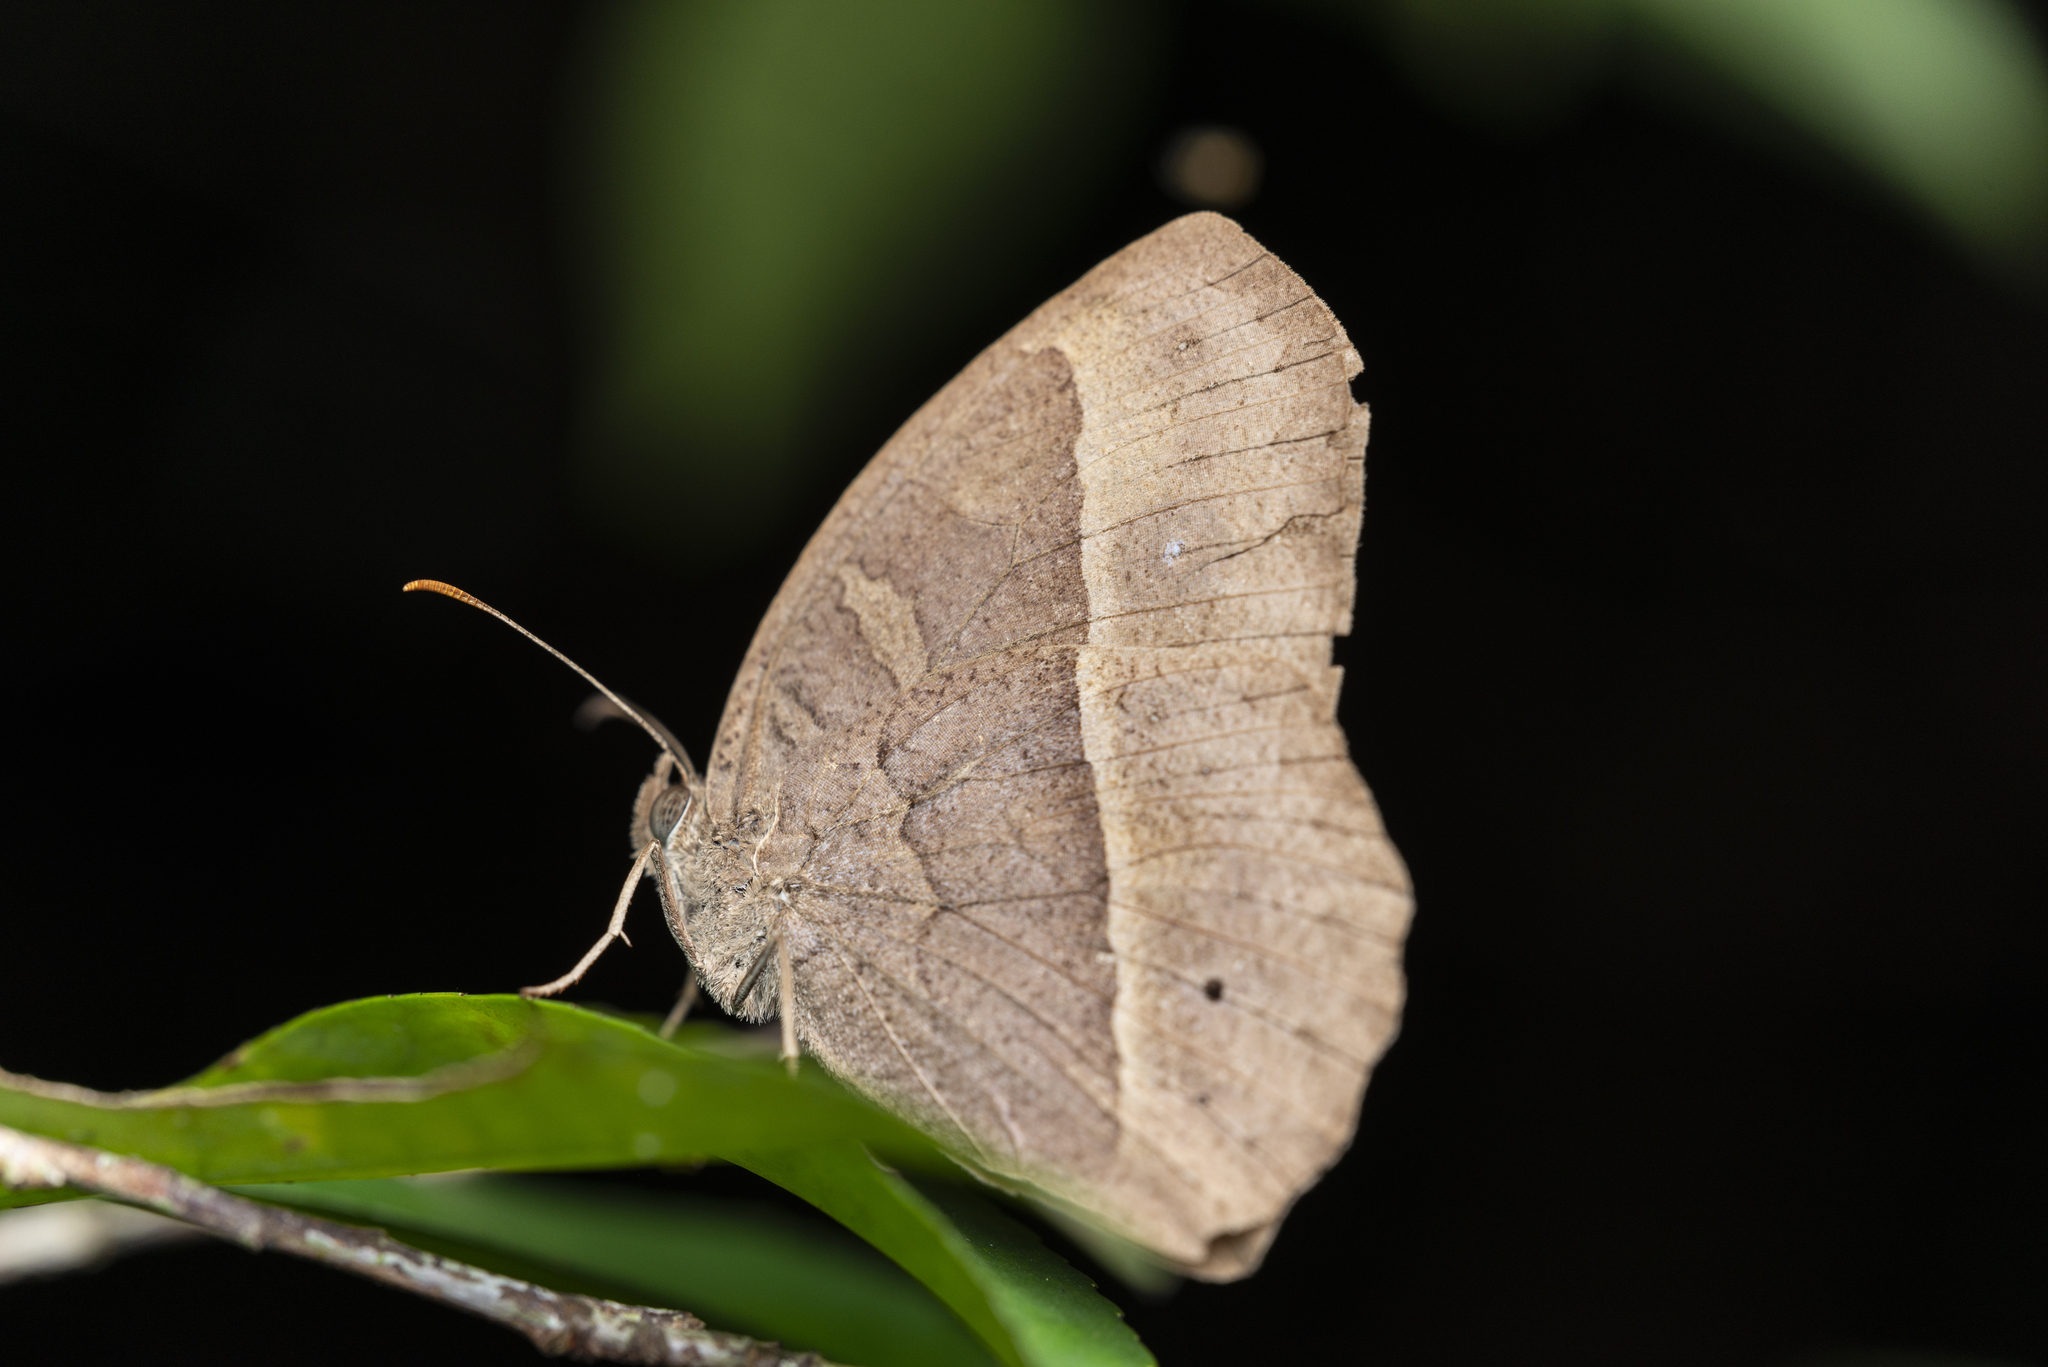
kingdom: Animalia
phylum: Arthropoda
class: Insecta
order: Lepidoptera
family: Nymphalidae
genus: Mycalesis
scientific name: Mycalesis horsfieldii
